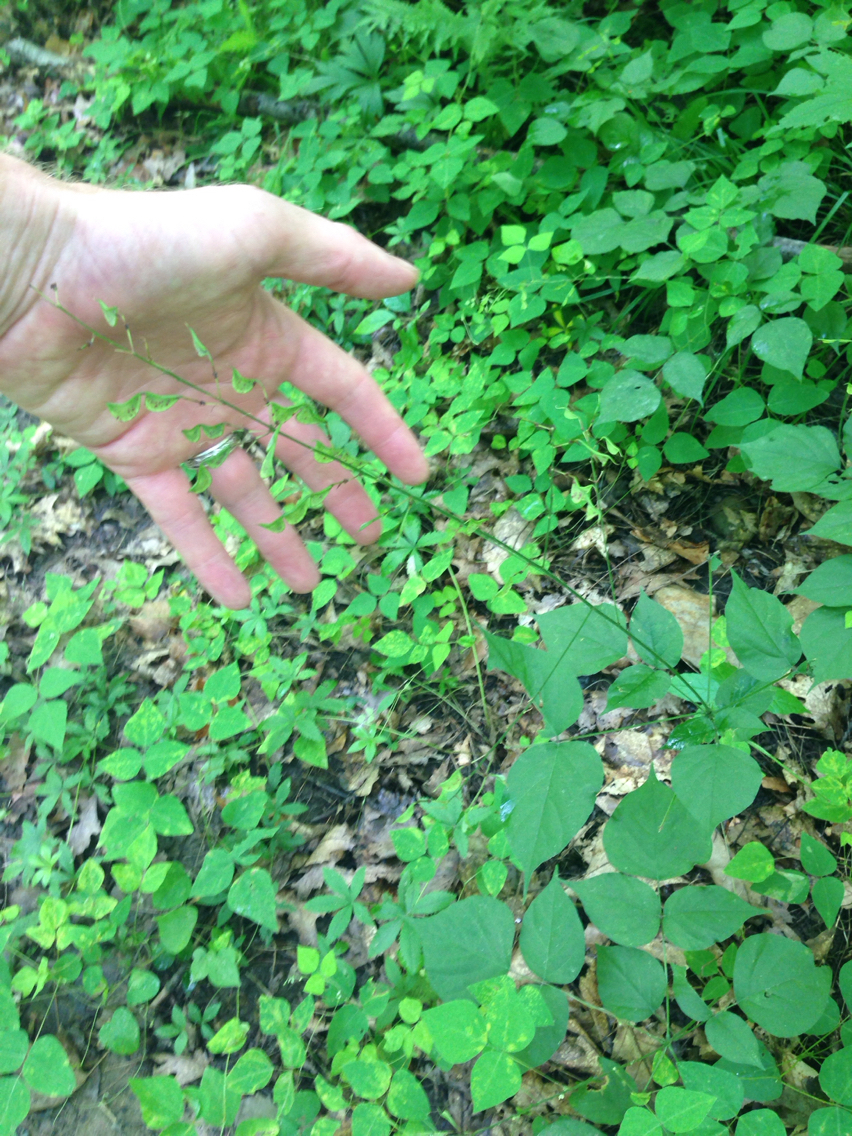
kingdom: Plantae
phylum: Tracheophyta
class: Magnoliopsida
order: Fabales
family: Fabaceae
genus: Hylodesmum
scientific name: Hylodesmum glutinosum
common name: Clustered-leaved tick-trefoil
